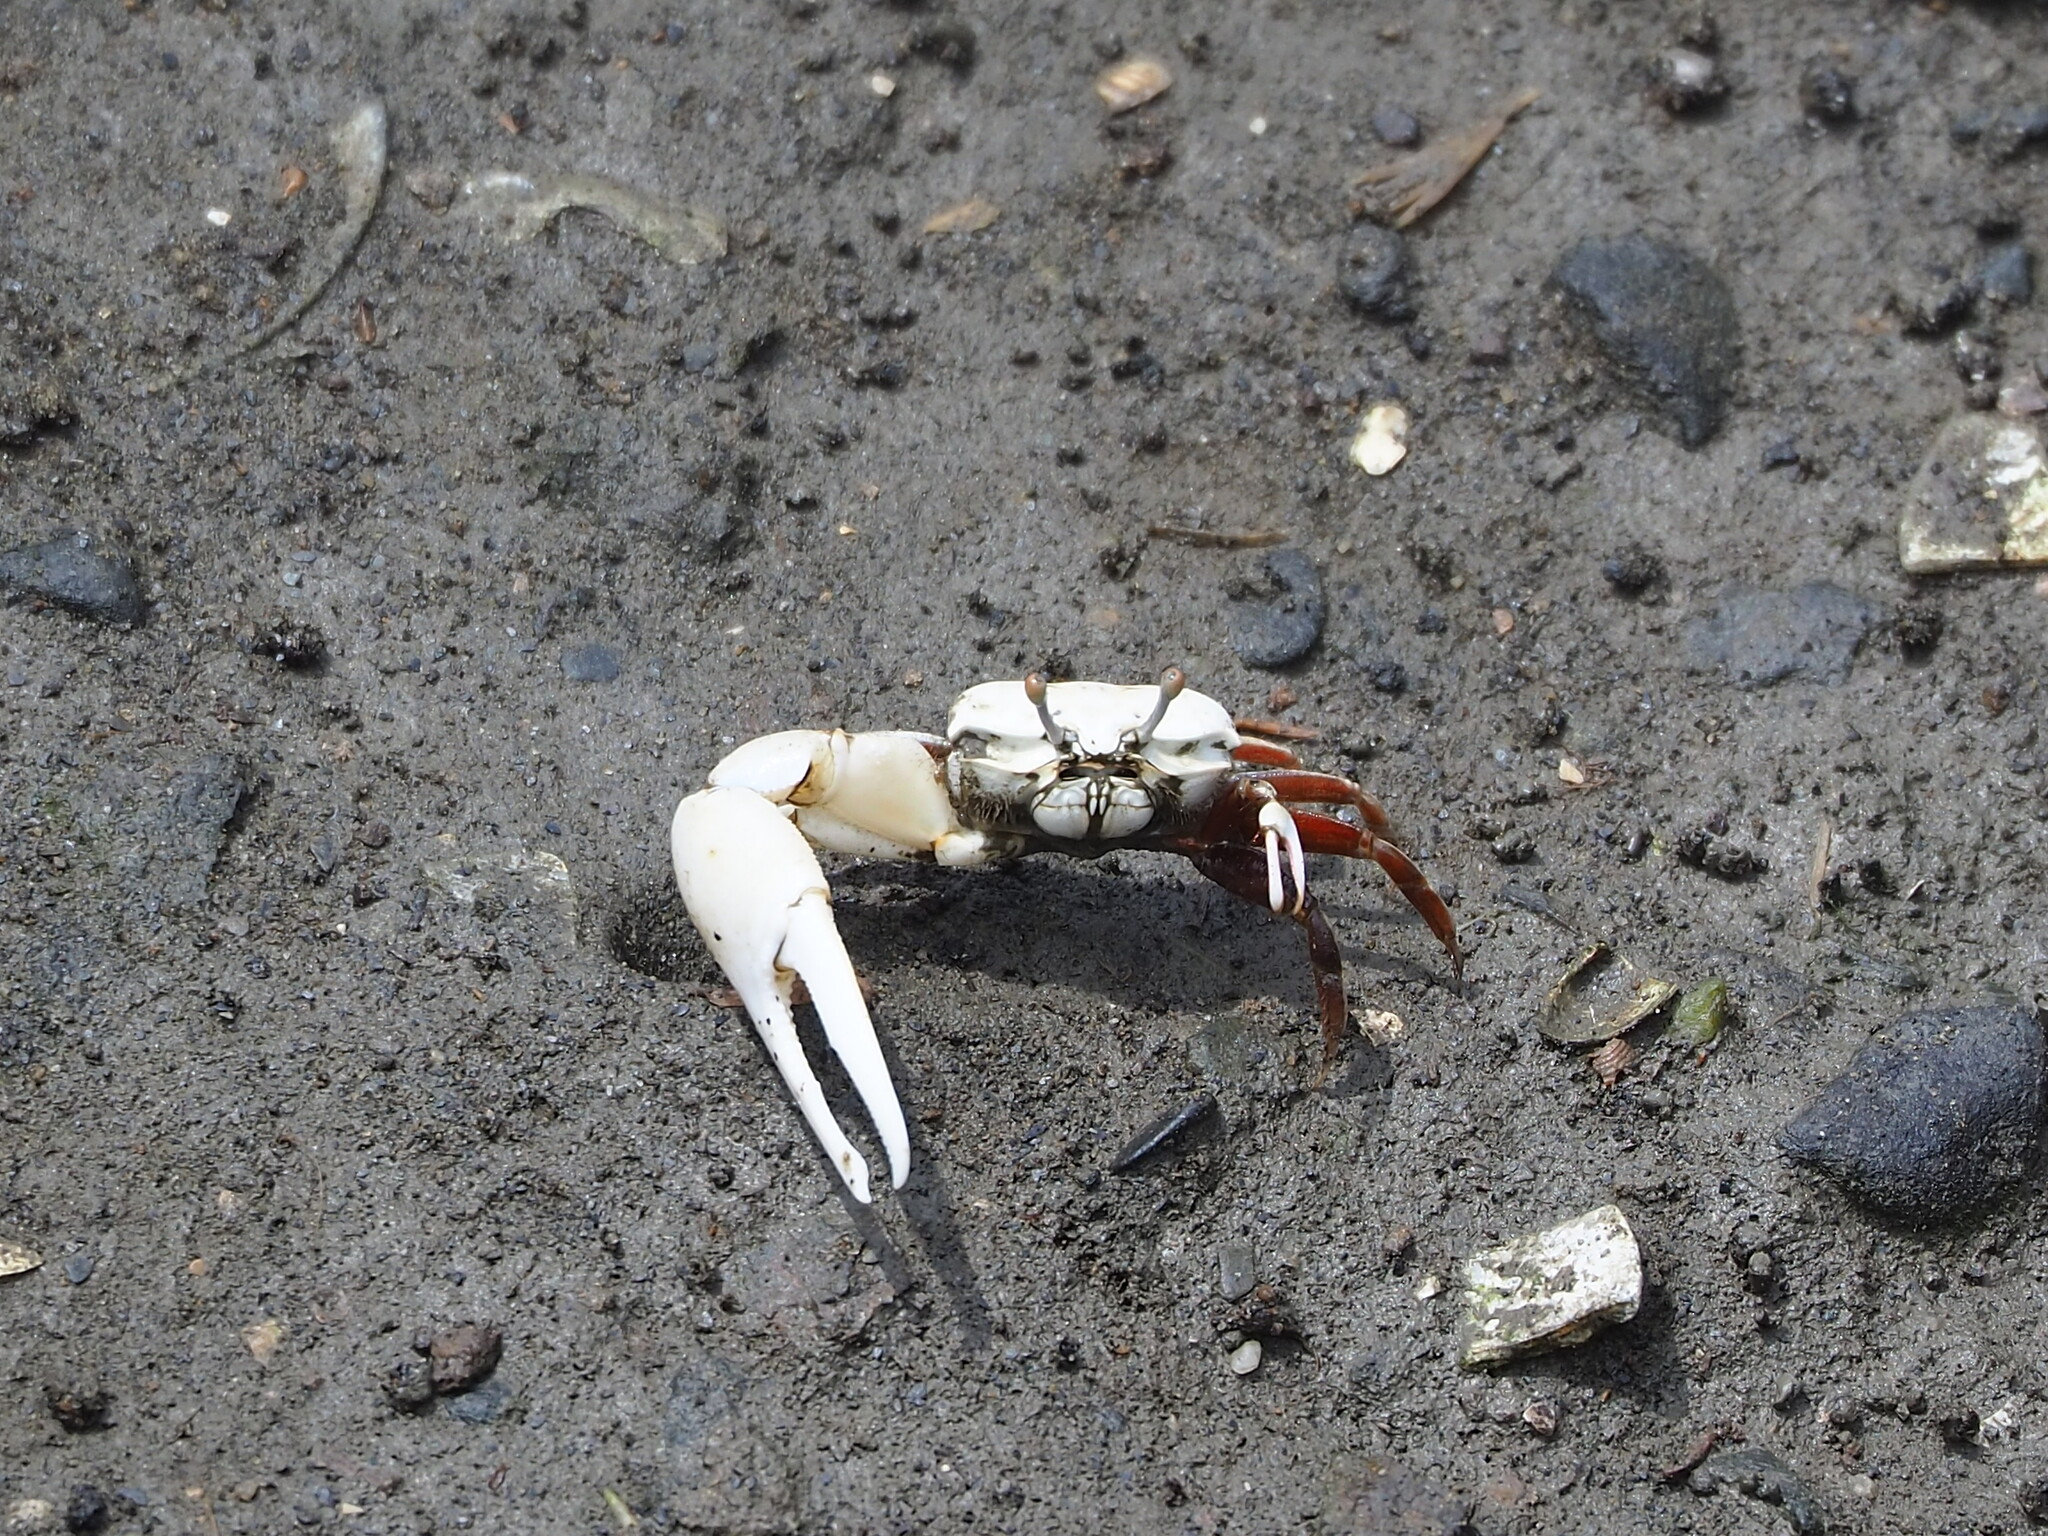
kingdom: Animalia
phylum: Arthropoda
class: Malacostraca
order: Decapoda
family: Ocypodidae
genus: Austruca
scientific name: Austruca lactea
